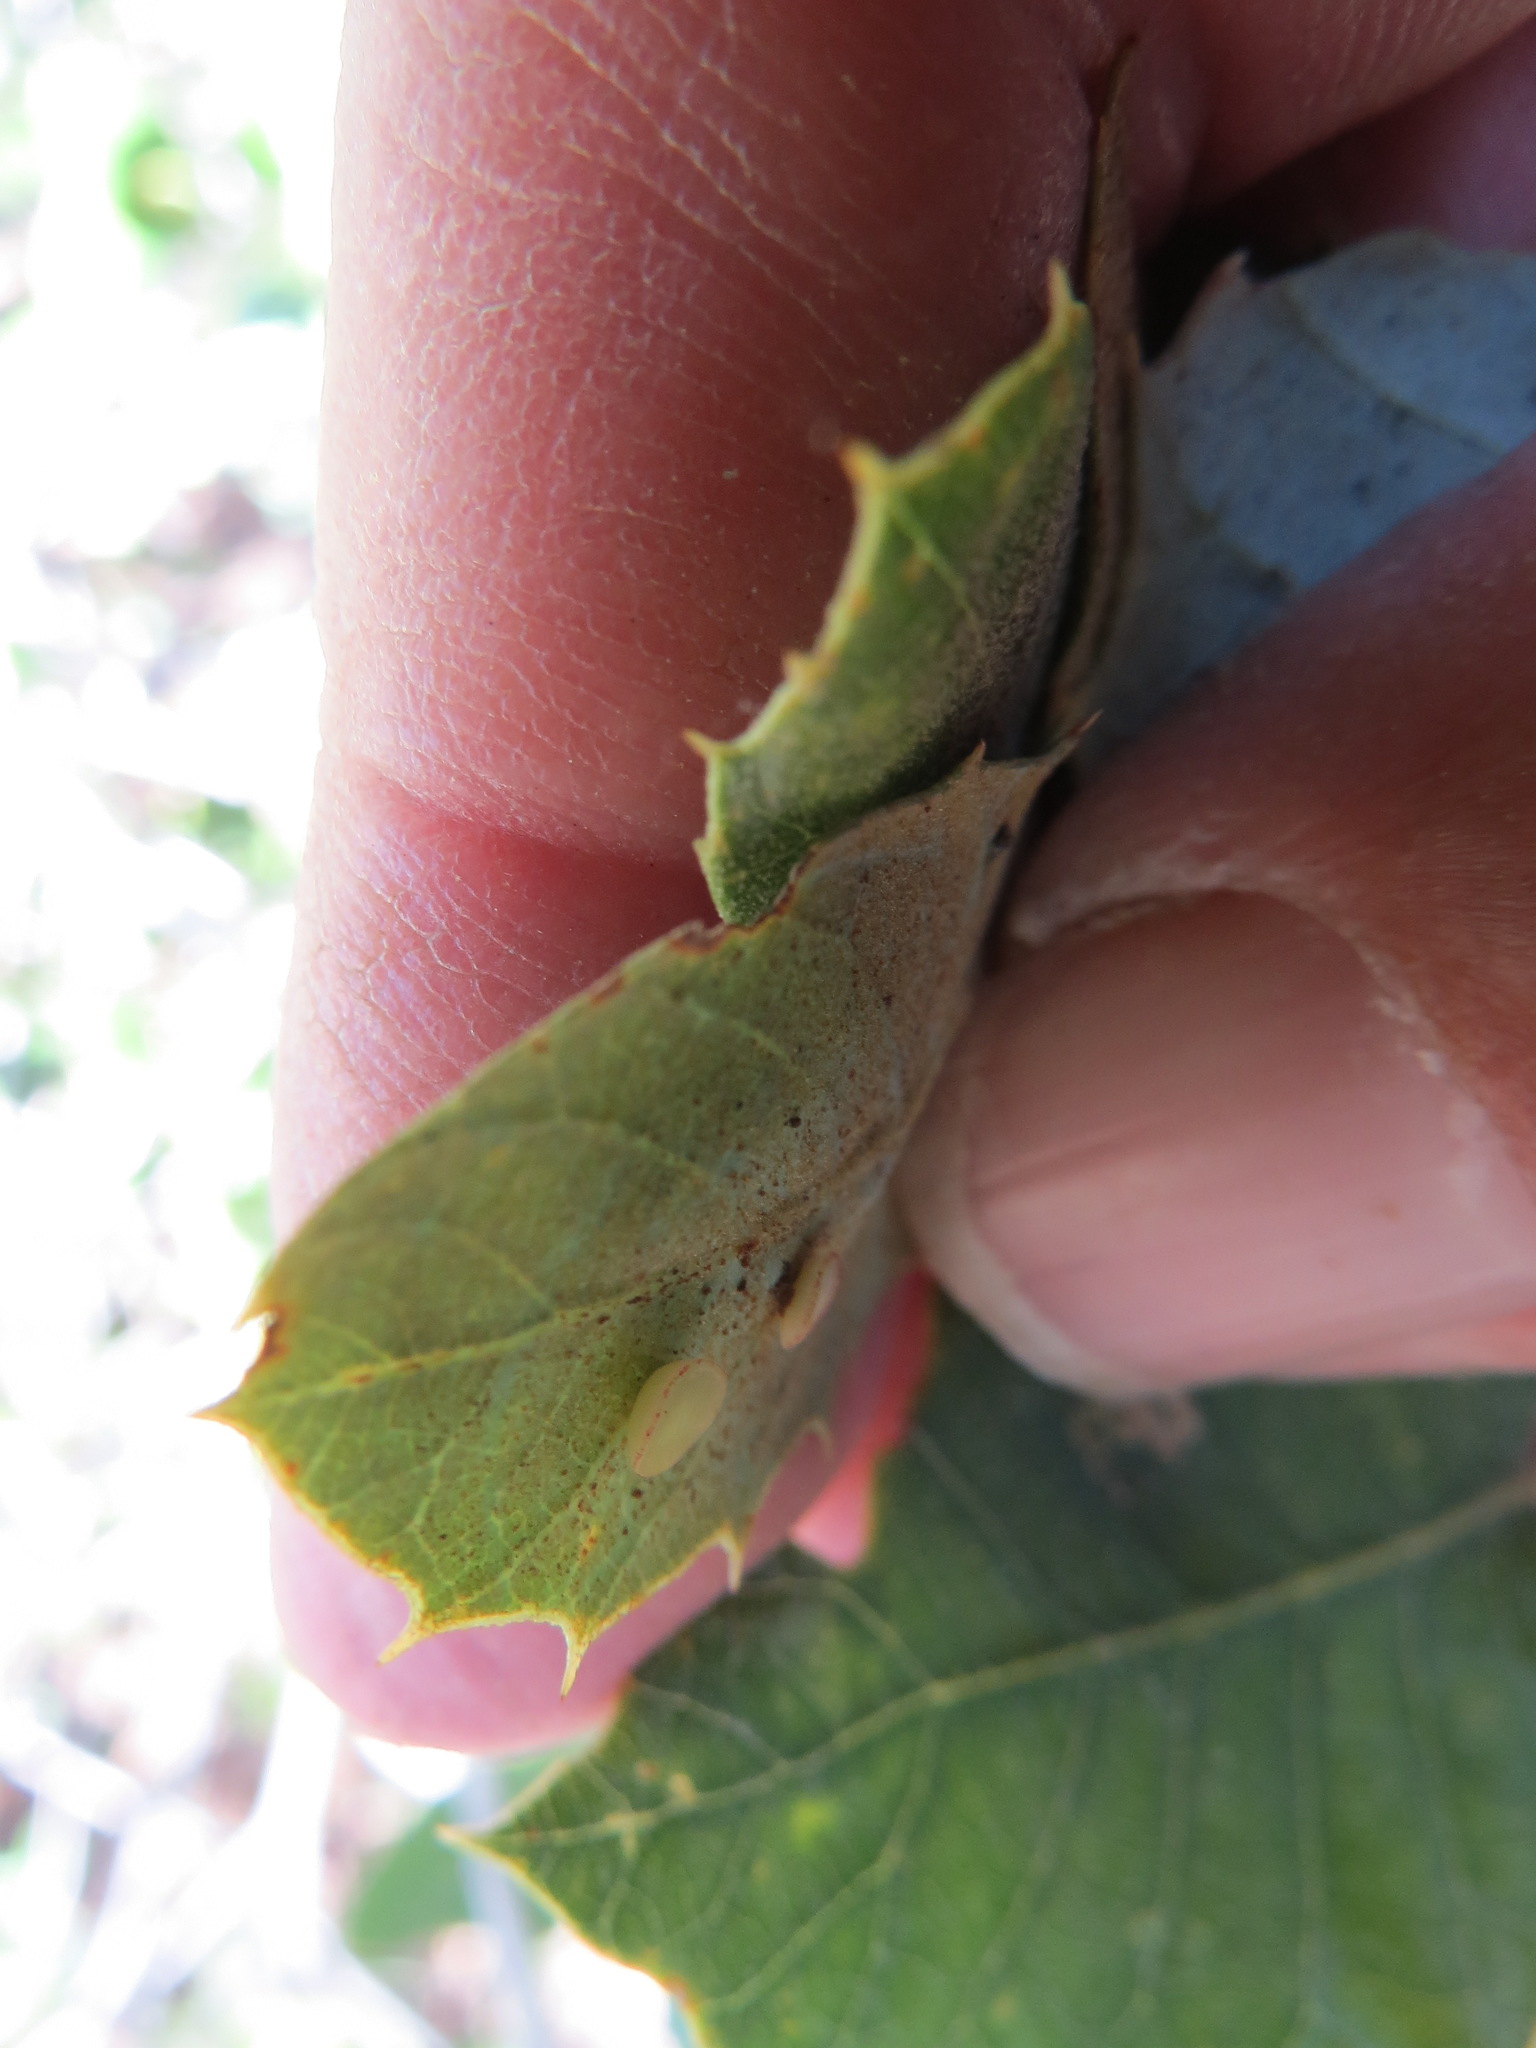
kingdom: Animalia
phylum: Arthropoda
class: Insecta
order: Hymenoptera
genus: Paracraspis
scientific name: Paracraspis
